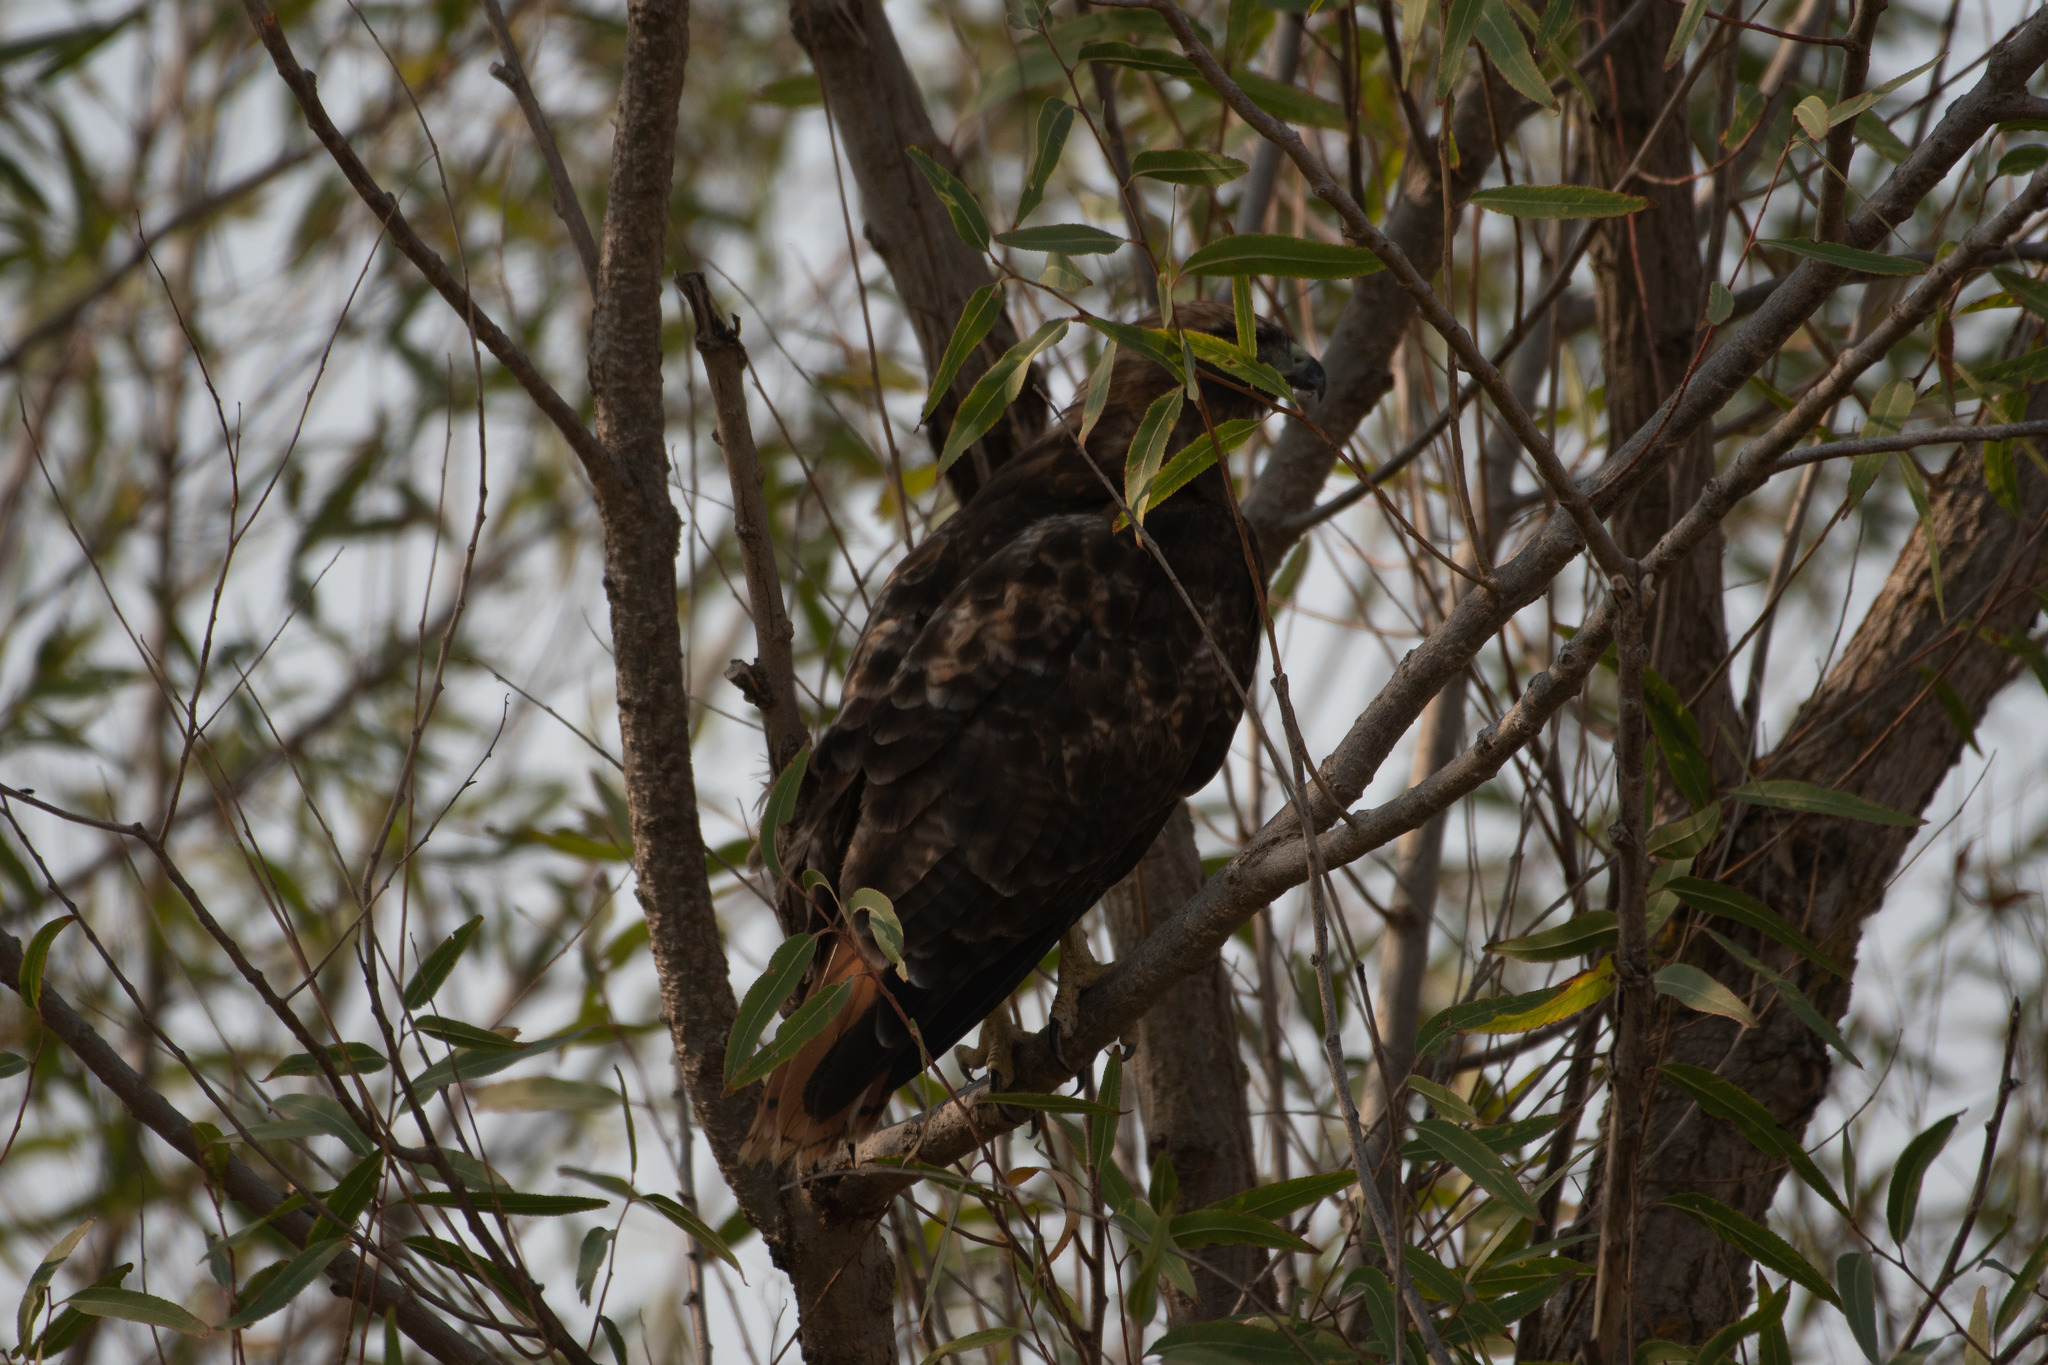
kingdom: Animalia
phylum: Chordata
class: Aves
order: Accipitriformes
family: Accipitridae
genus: Buteo
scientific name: Buteo jamaicensis
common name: Red-tailed hawk
